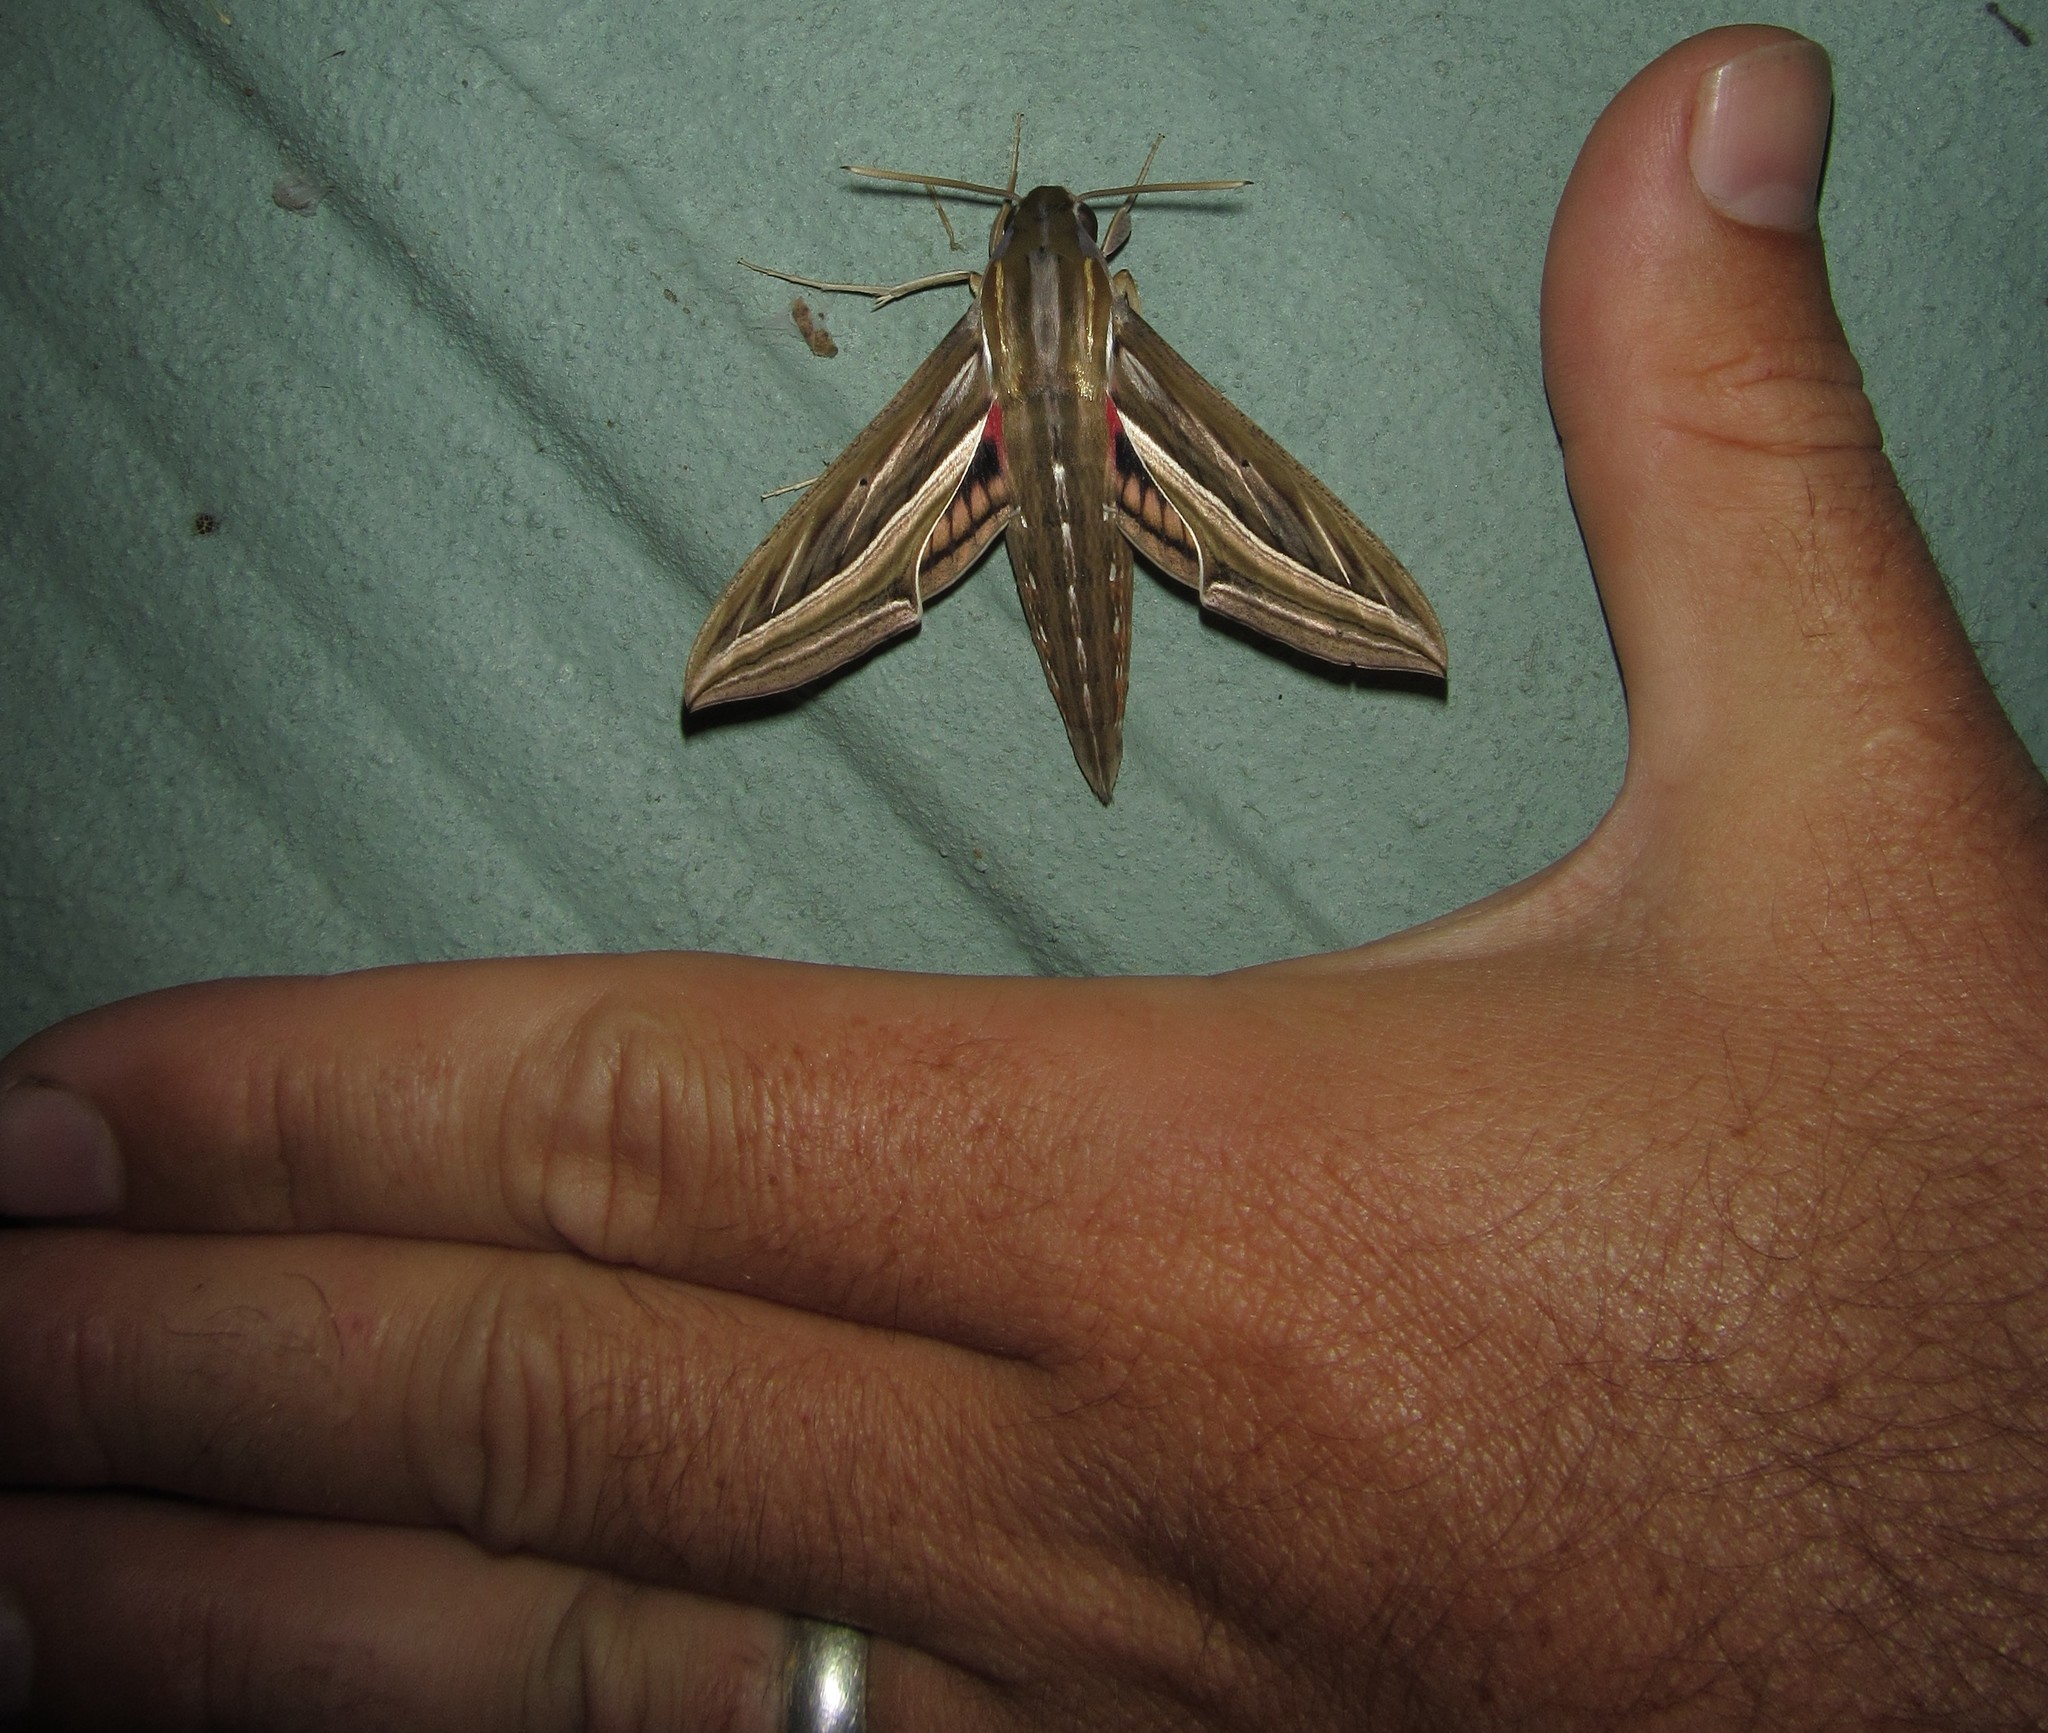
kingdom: Animalia
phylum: Arthropoda
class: Insecta
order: Lepidoptera
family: Sphingidae
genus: Hippotion
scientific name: Hippotion celerio
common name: Silver-striped hawk-moth
